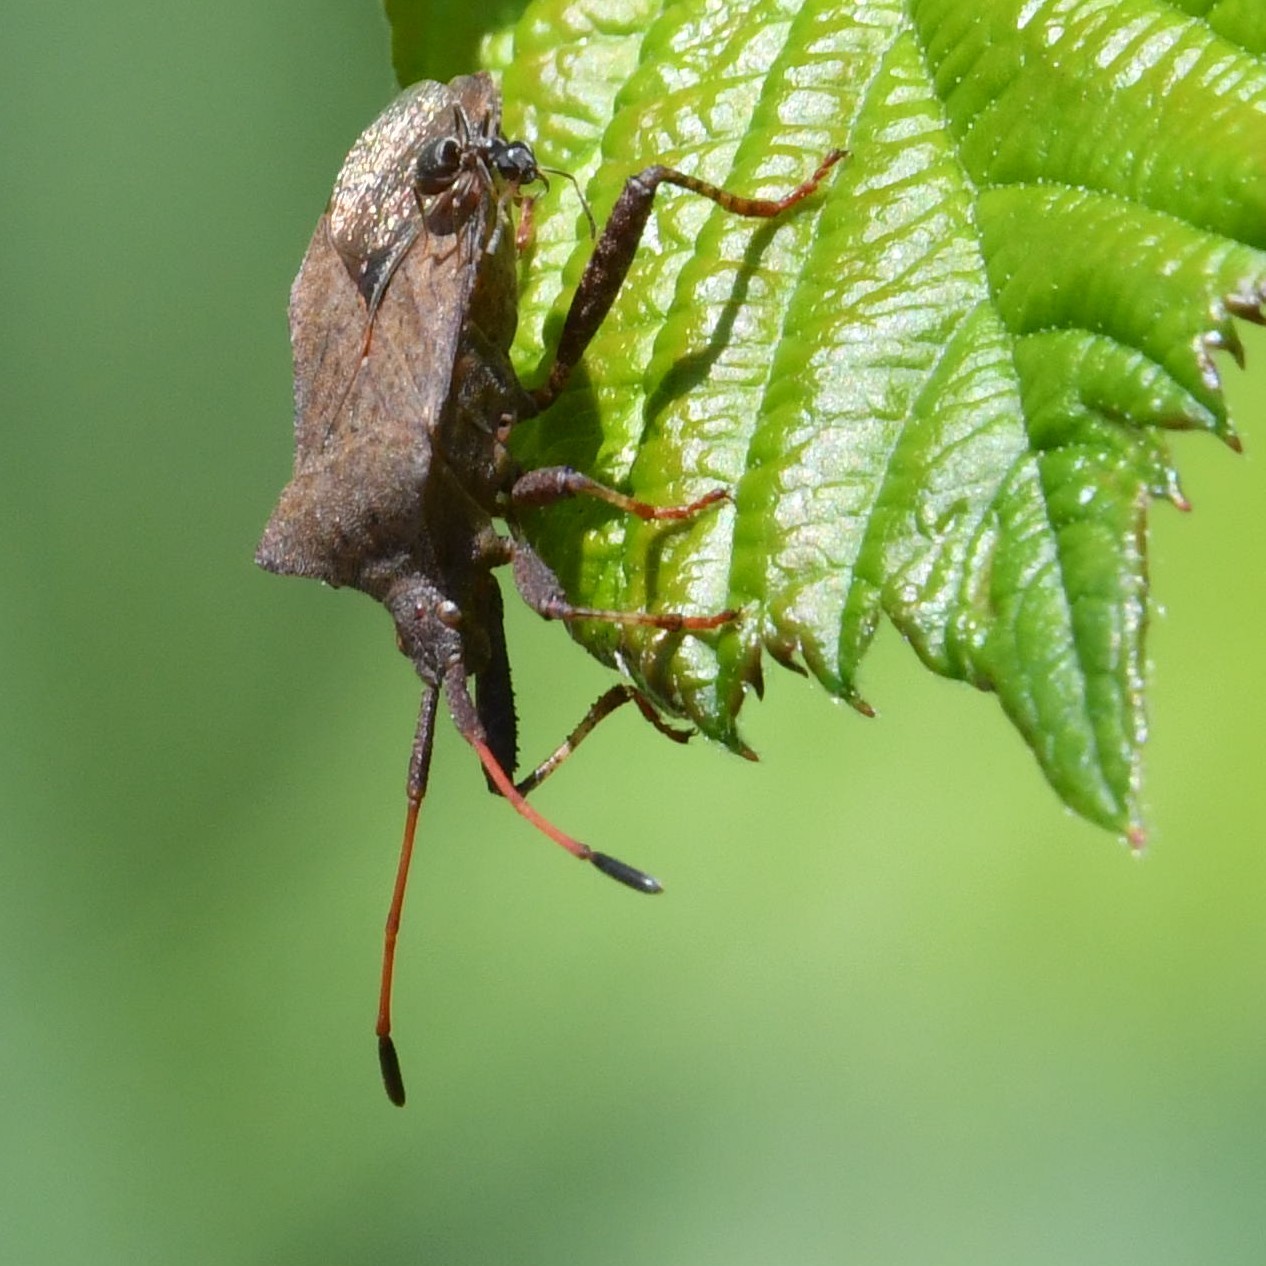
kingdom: Animalia
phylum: Arthropoda
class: Insecta
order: Hemiptera
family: Coreidae
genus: Coreus
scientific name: Coreus marginatus
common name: Dock bug
